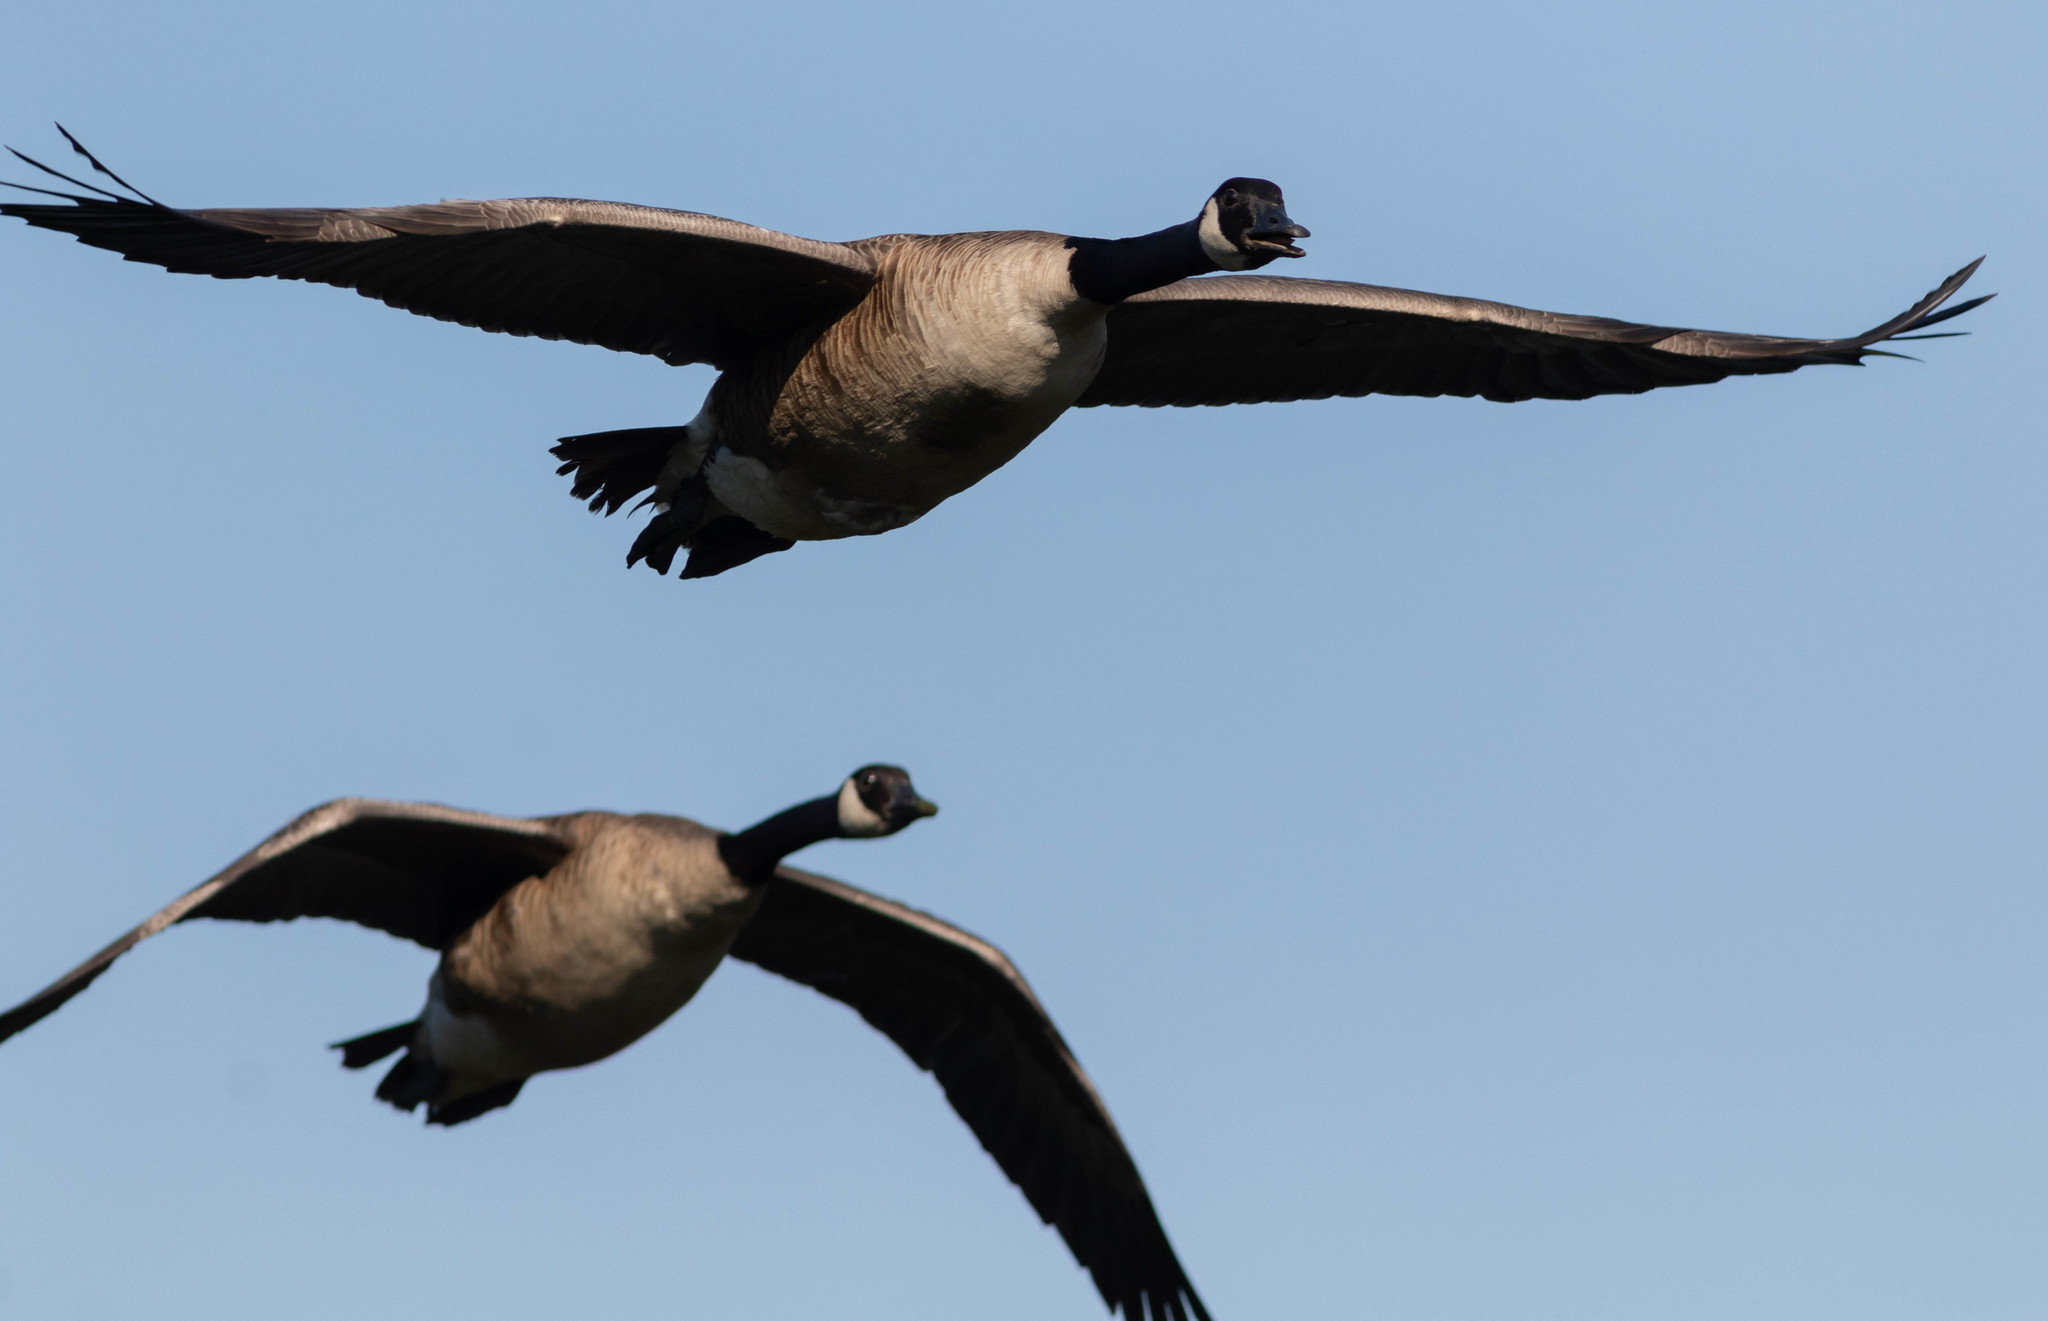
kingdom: Animalia
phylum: Chordata
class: Aves
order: Anseriformes
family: Anatidae
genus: Branta
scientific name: Branta canadensis
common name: Canada goose
